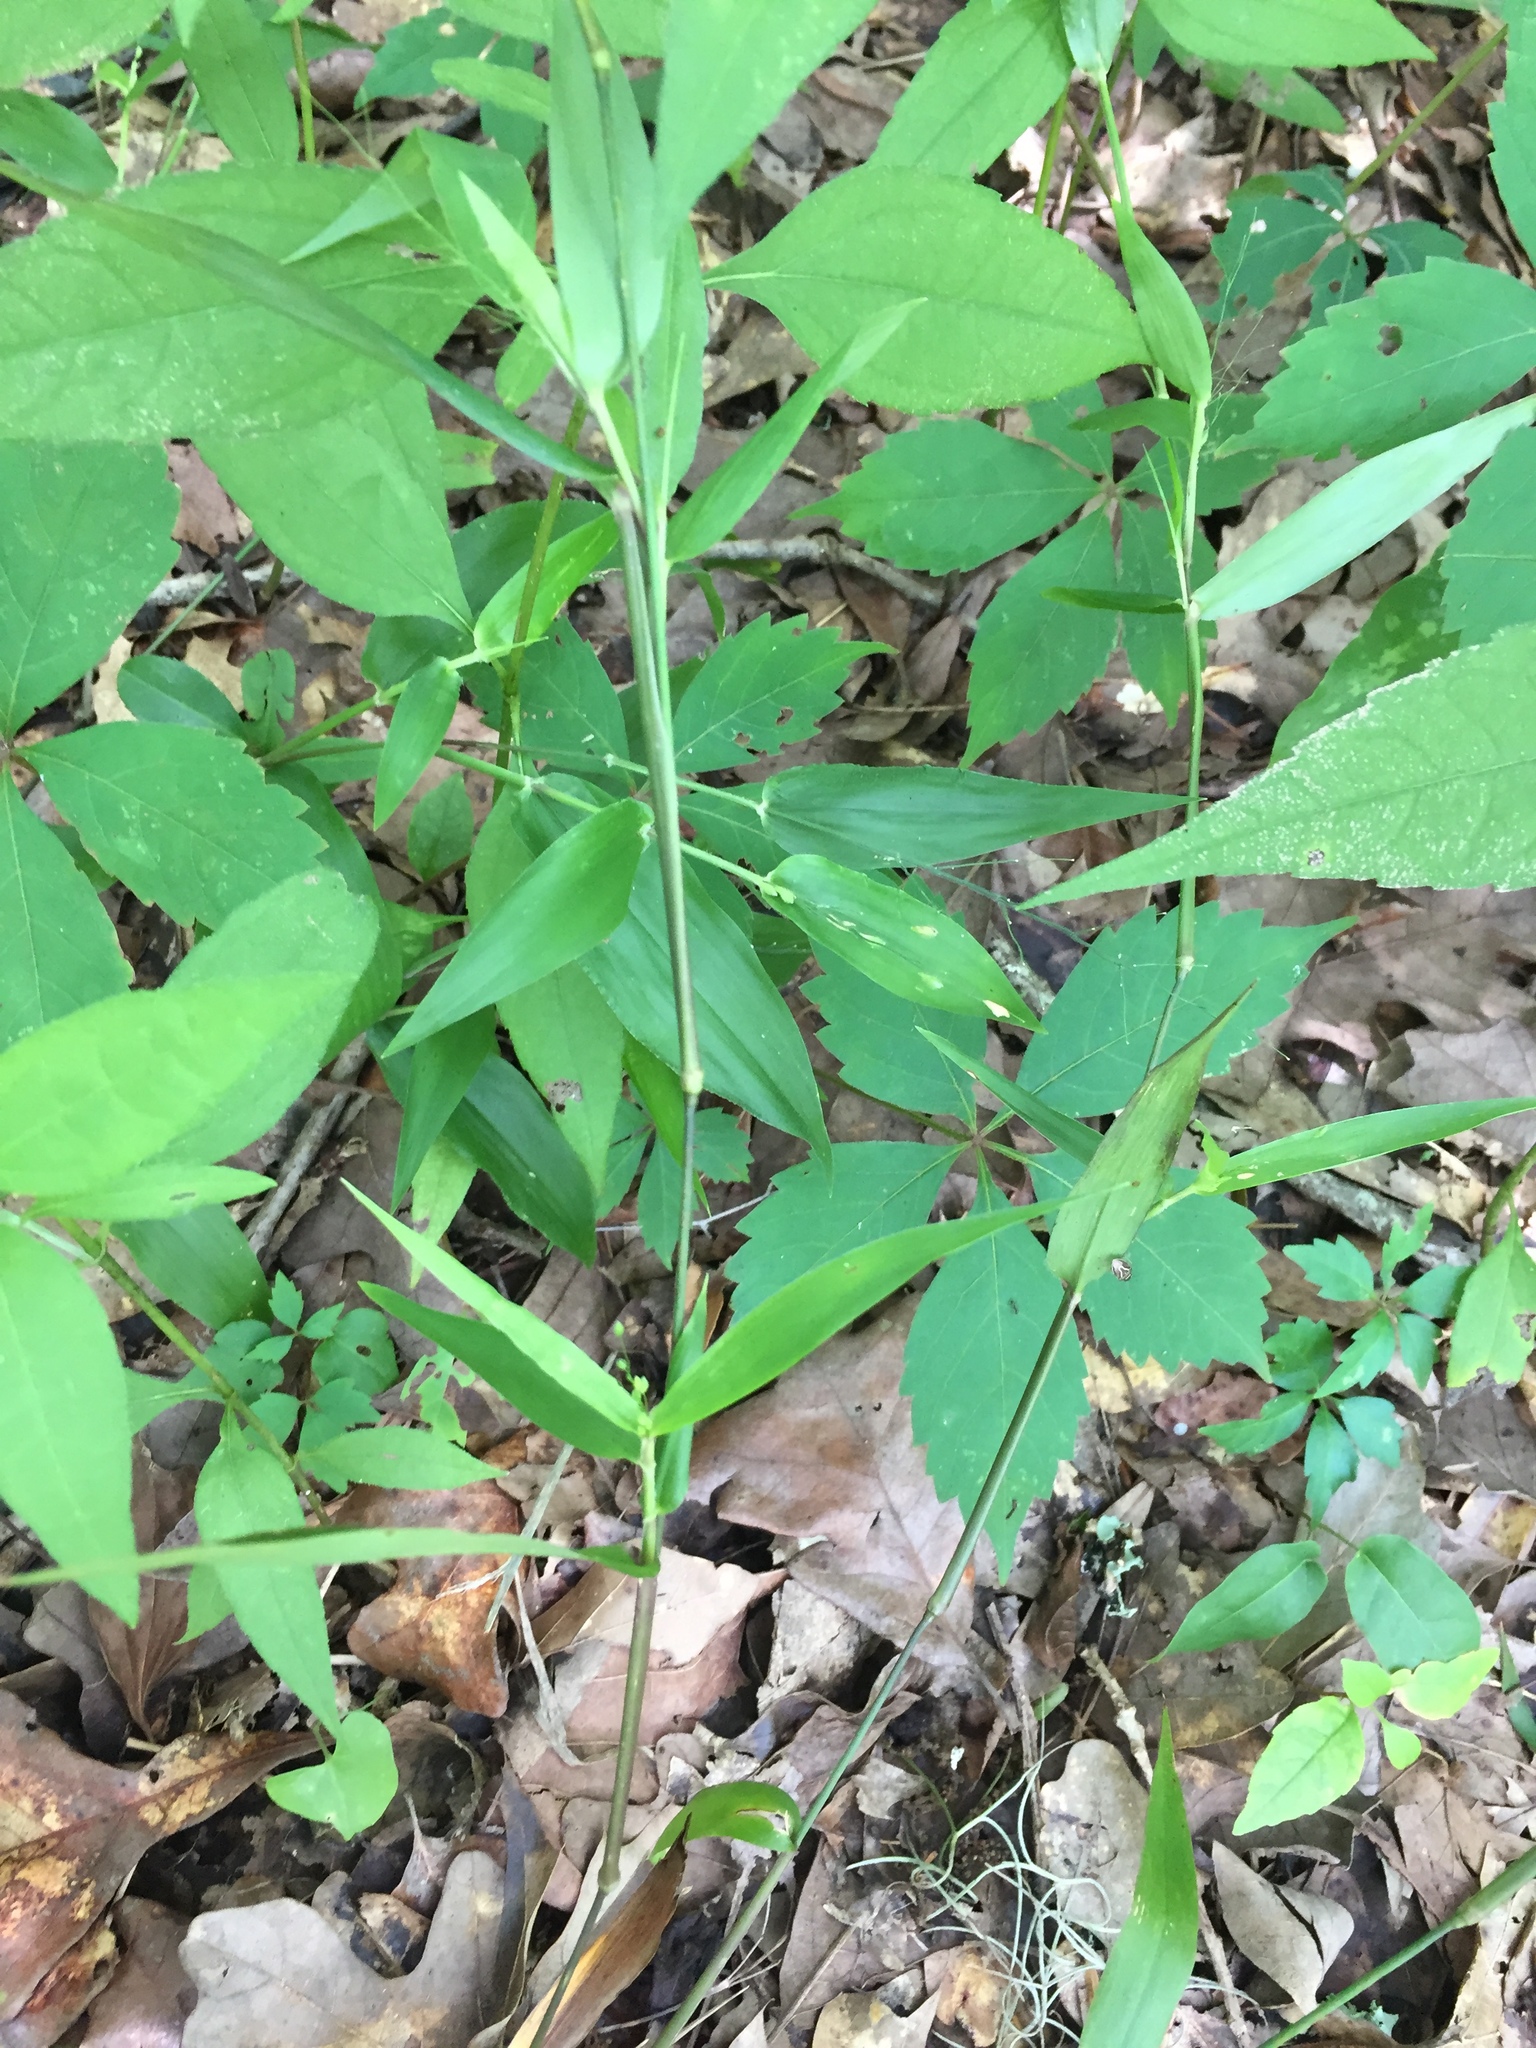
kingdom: Plantae
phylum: Tracheophyta
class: Liliopsida
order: Poales
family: Poaceae
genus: Dichanthelium
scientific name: Dichanthelium commutatum
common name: Variable witchgrass
